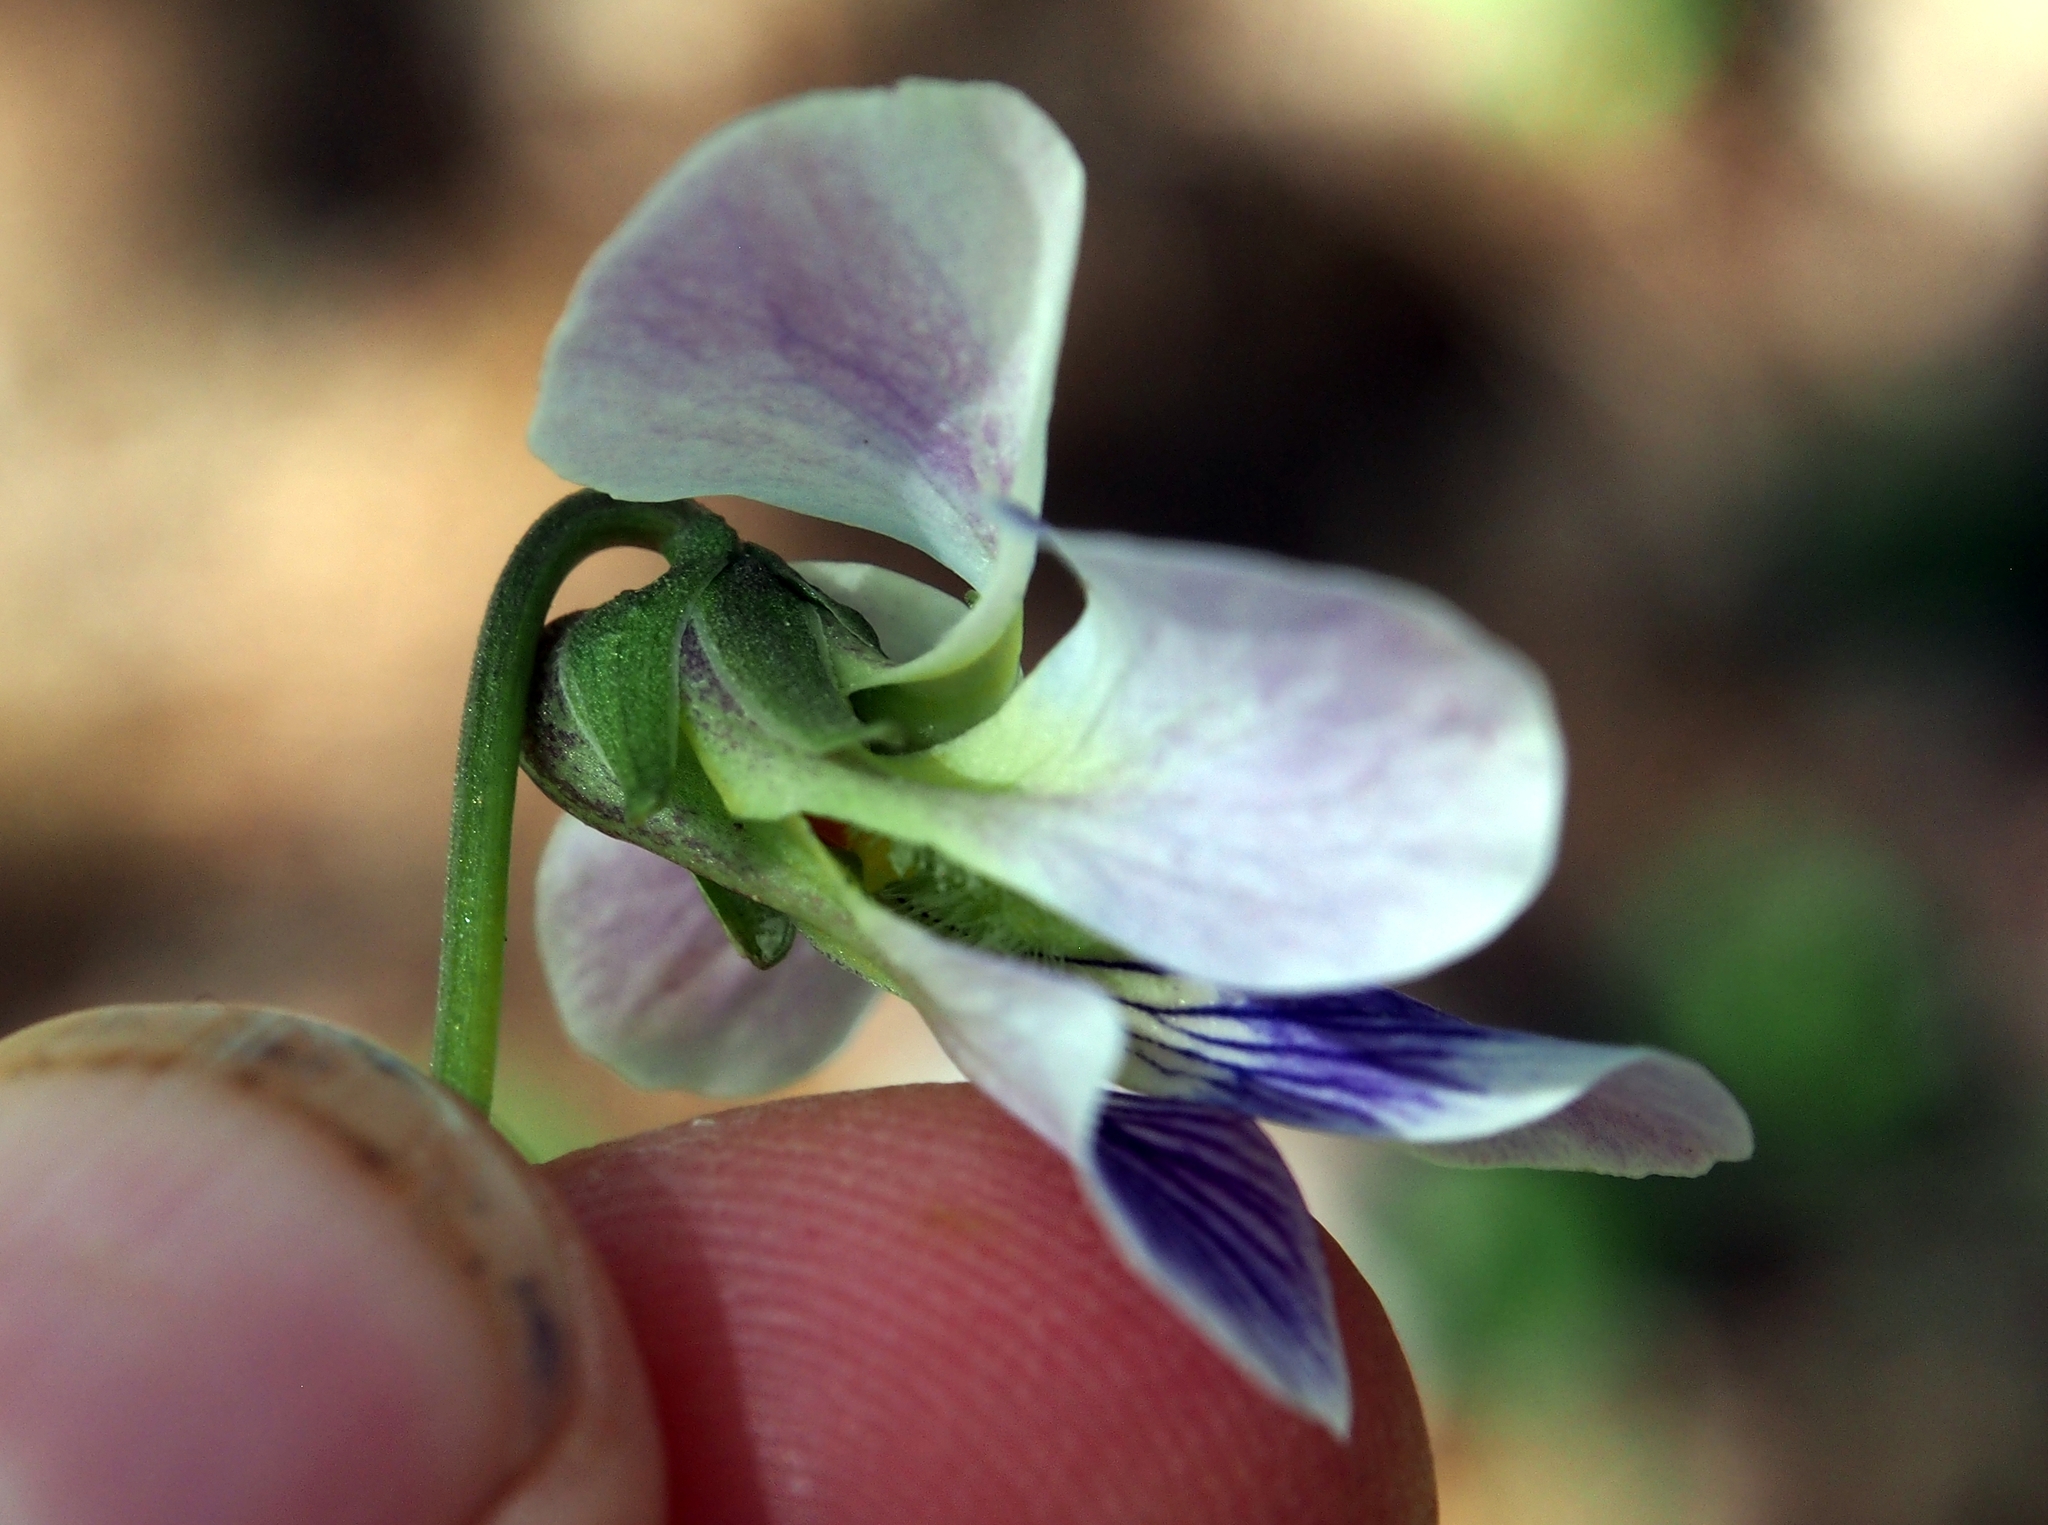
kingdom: Plantae
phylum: Tracheophyta
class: Magnoliopsida
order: Malpighiales
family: Violaceae
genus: Viola
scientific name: Viola sororia
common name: Dooryard violet
